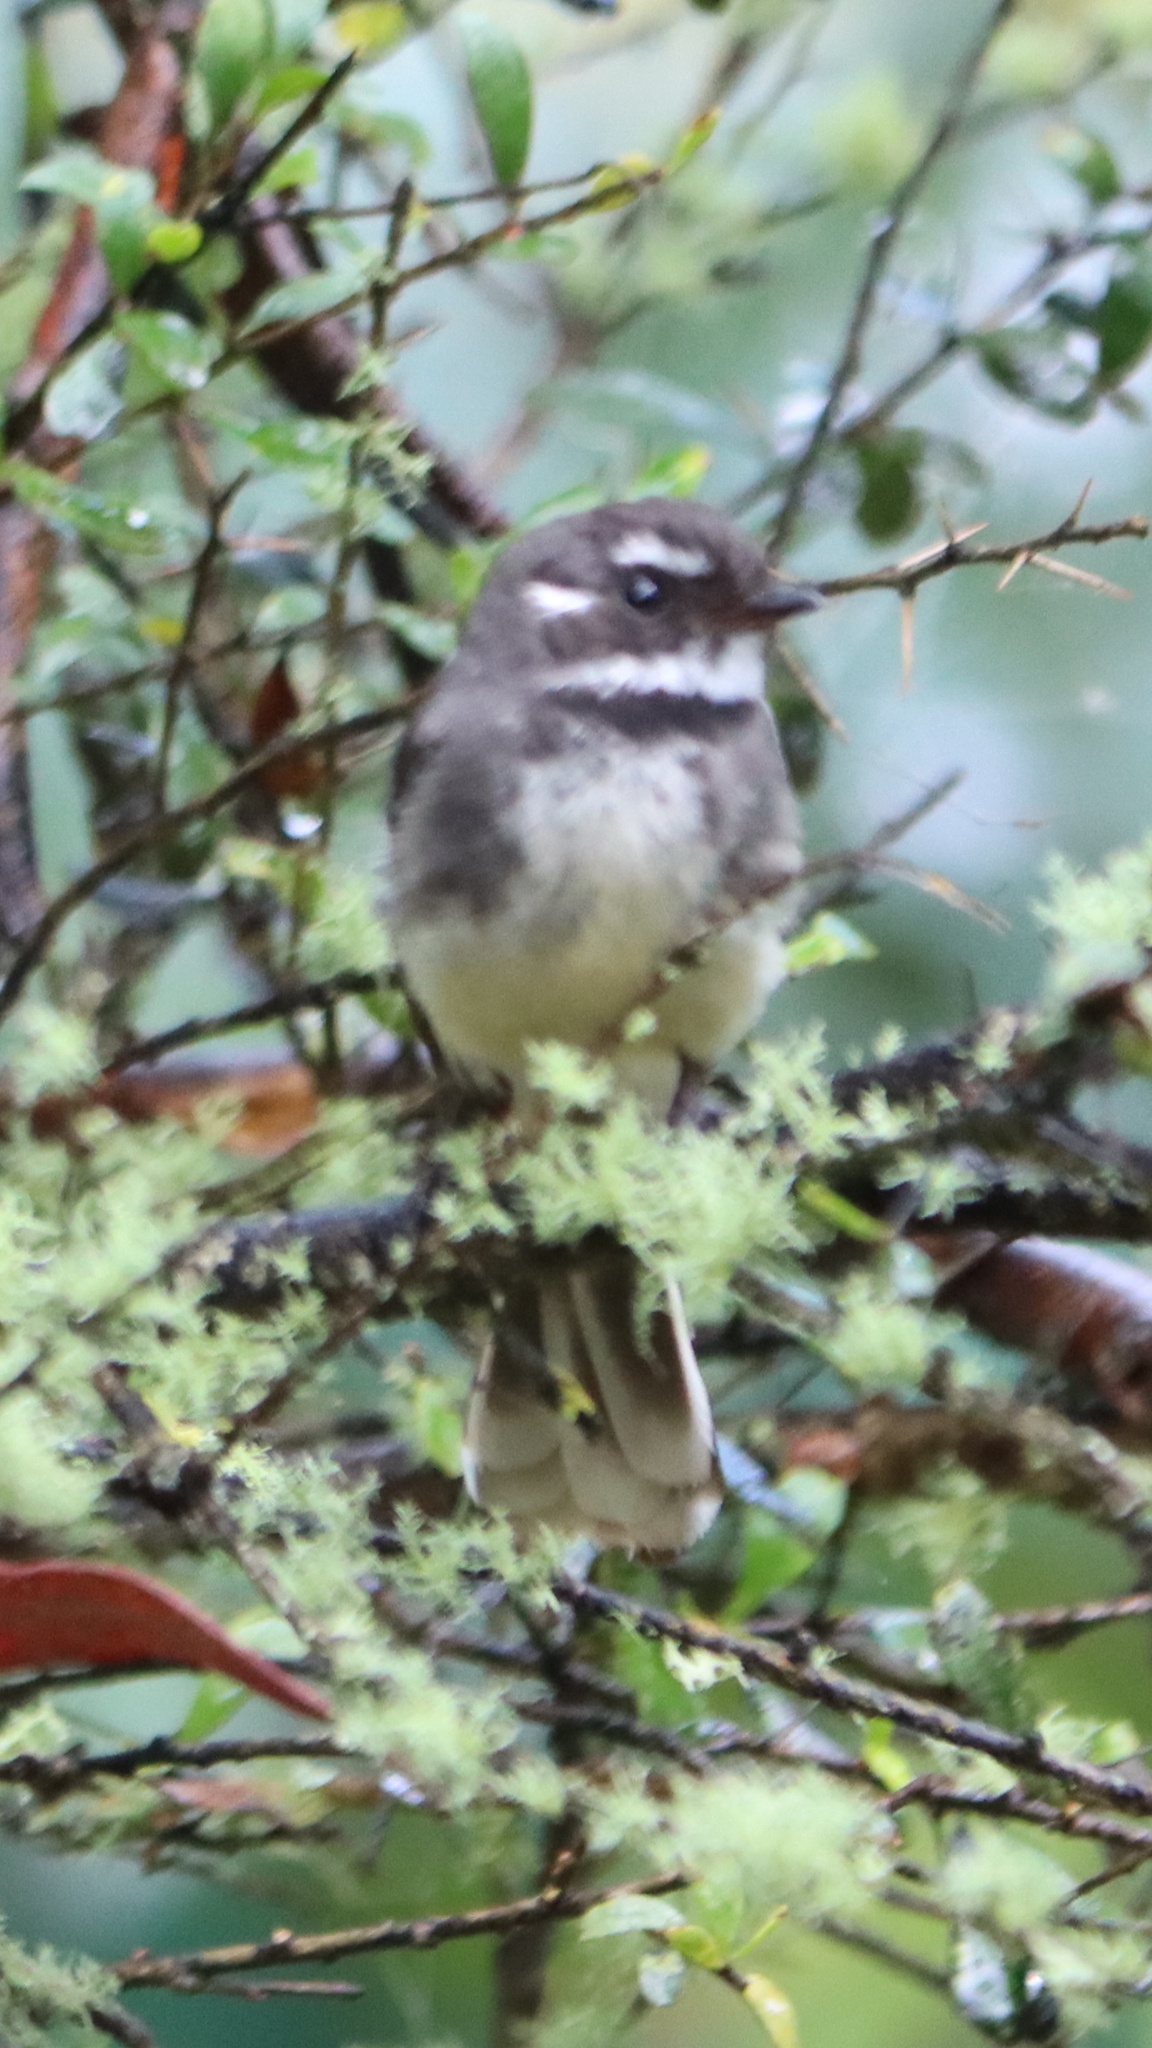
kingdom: Animalia
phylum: Chordata
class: Aves
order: Passeriformes
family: Rhipiduridae
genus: Rhipidura
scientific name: Rhipidura albiscapa
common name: Grey fantail
